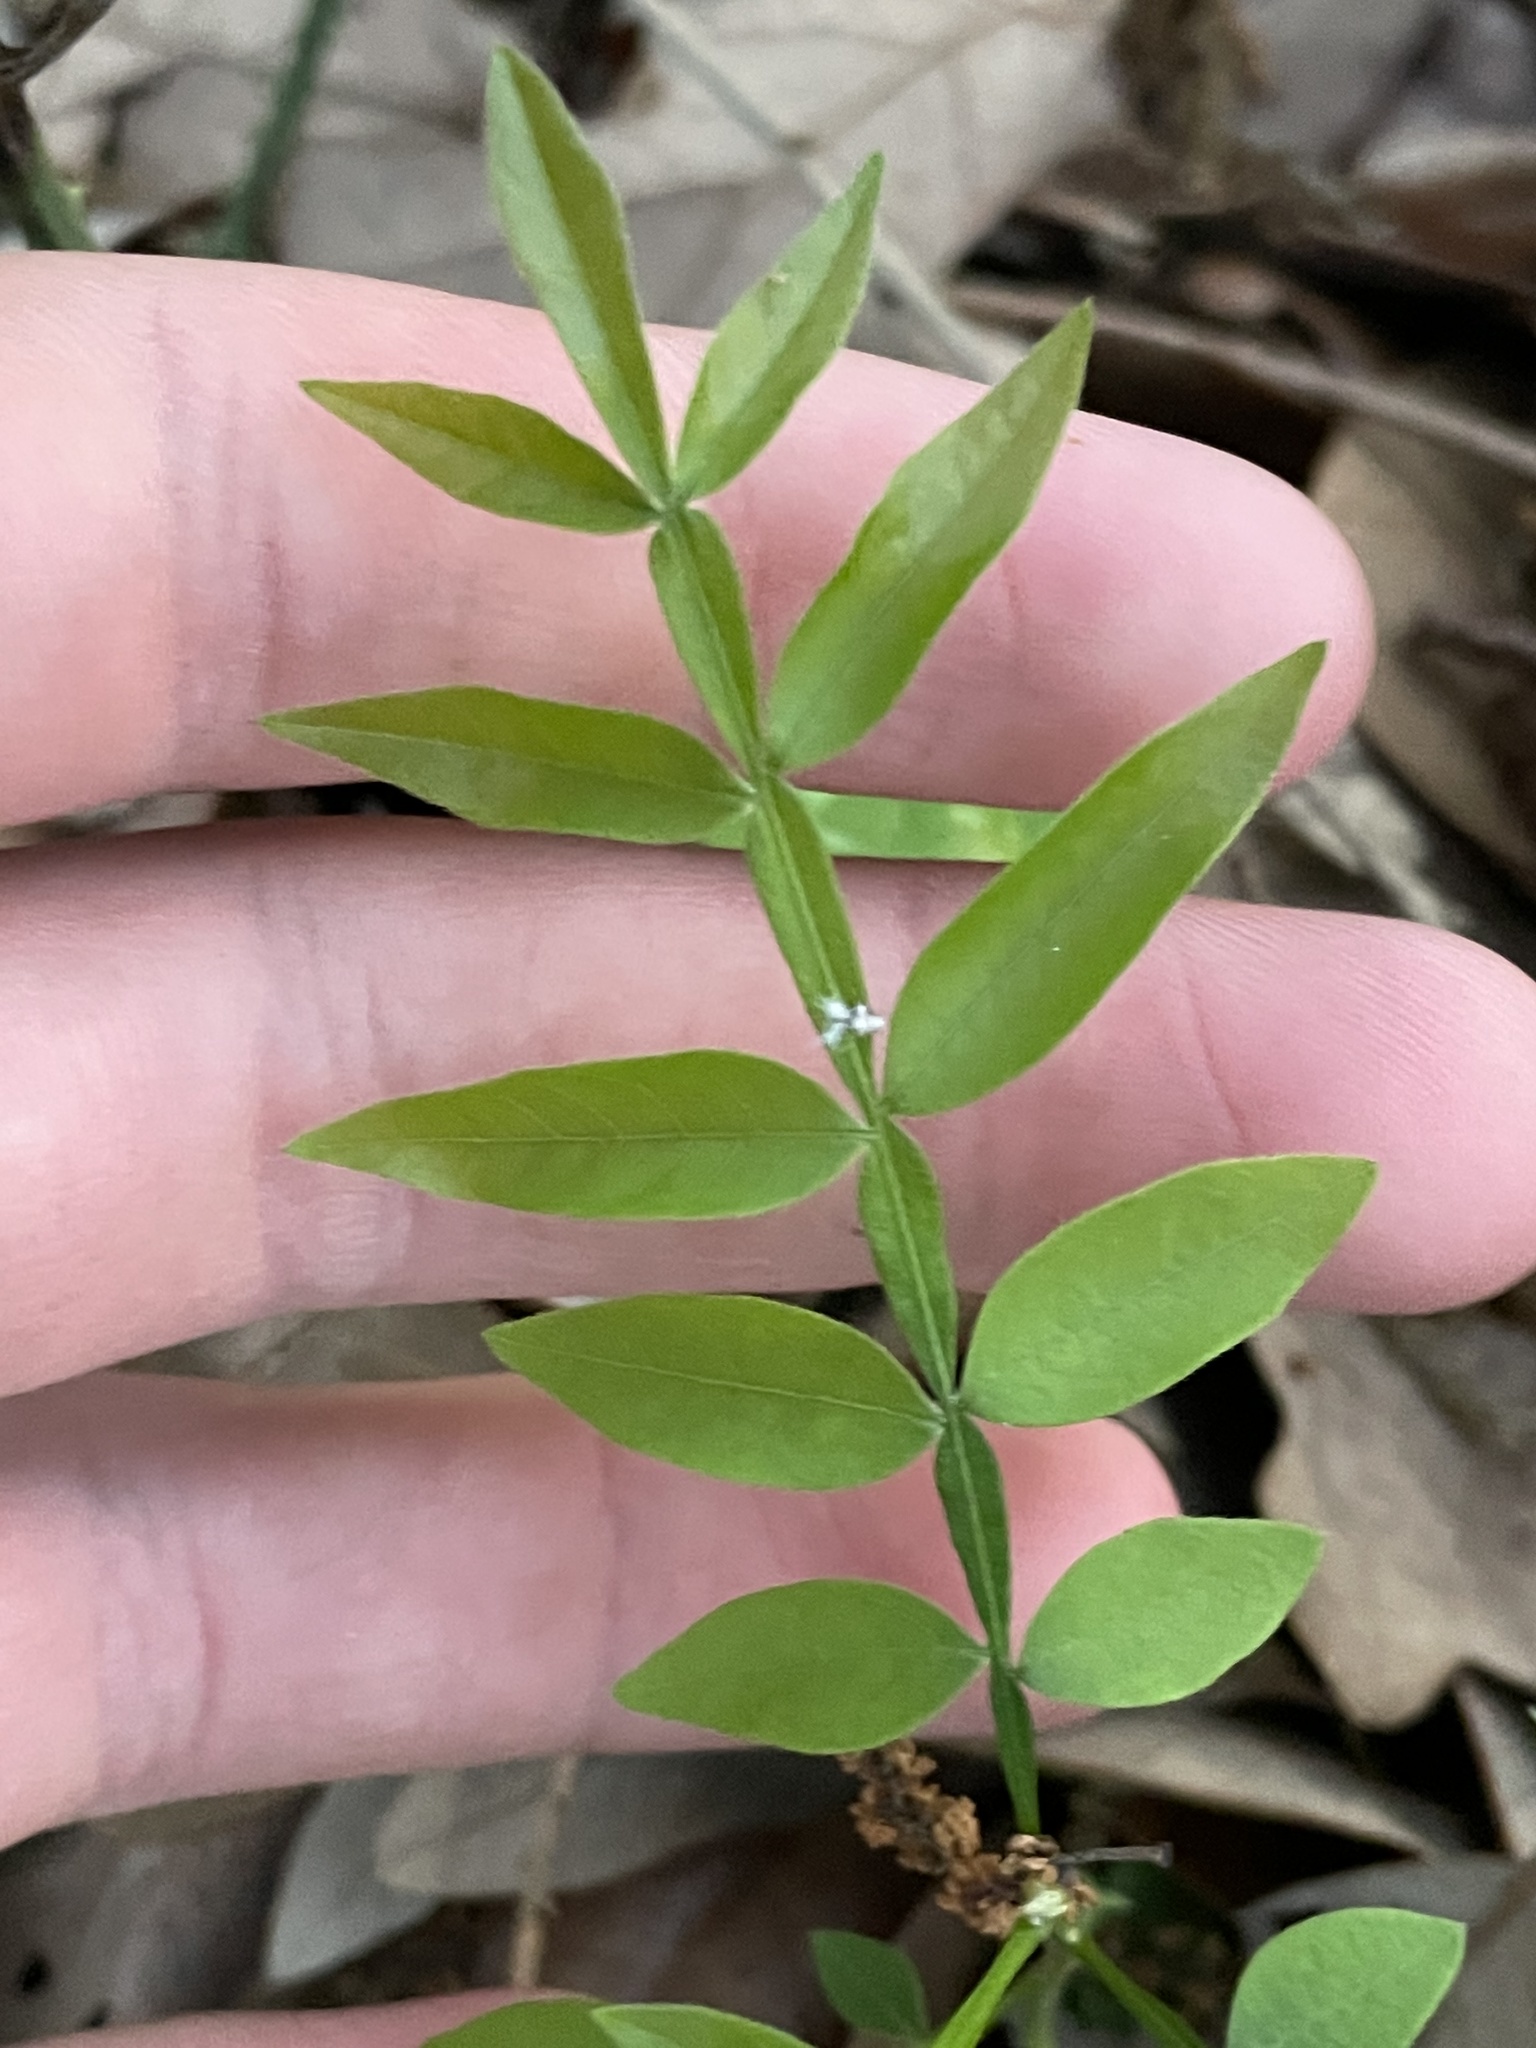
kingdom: Plantae
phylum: Tracheophyta
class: Magnoliopsida
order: Sapindales
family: Anacardiaceae
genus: Rhus
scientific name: Rhus lanceolata
